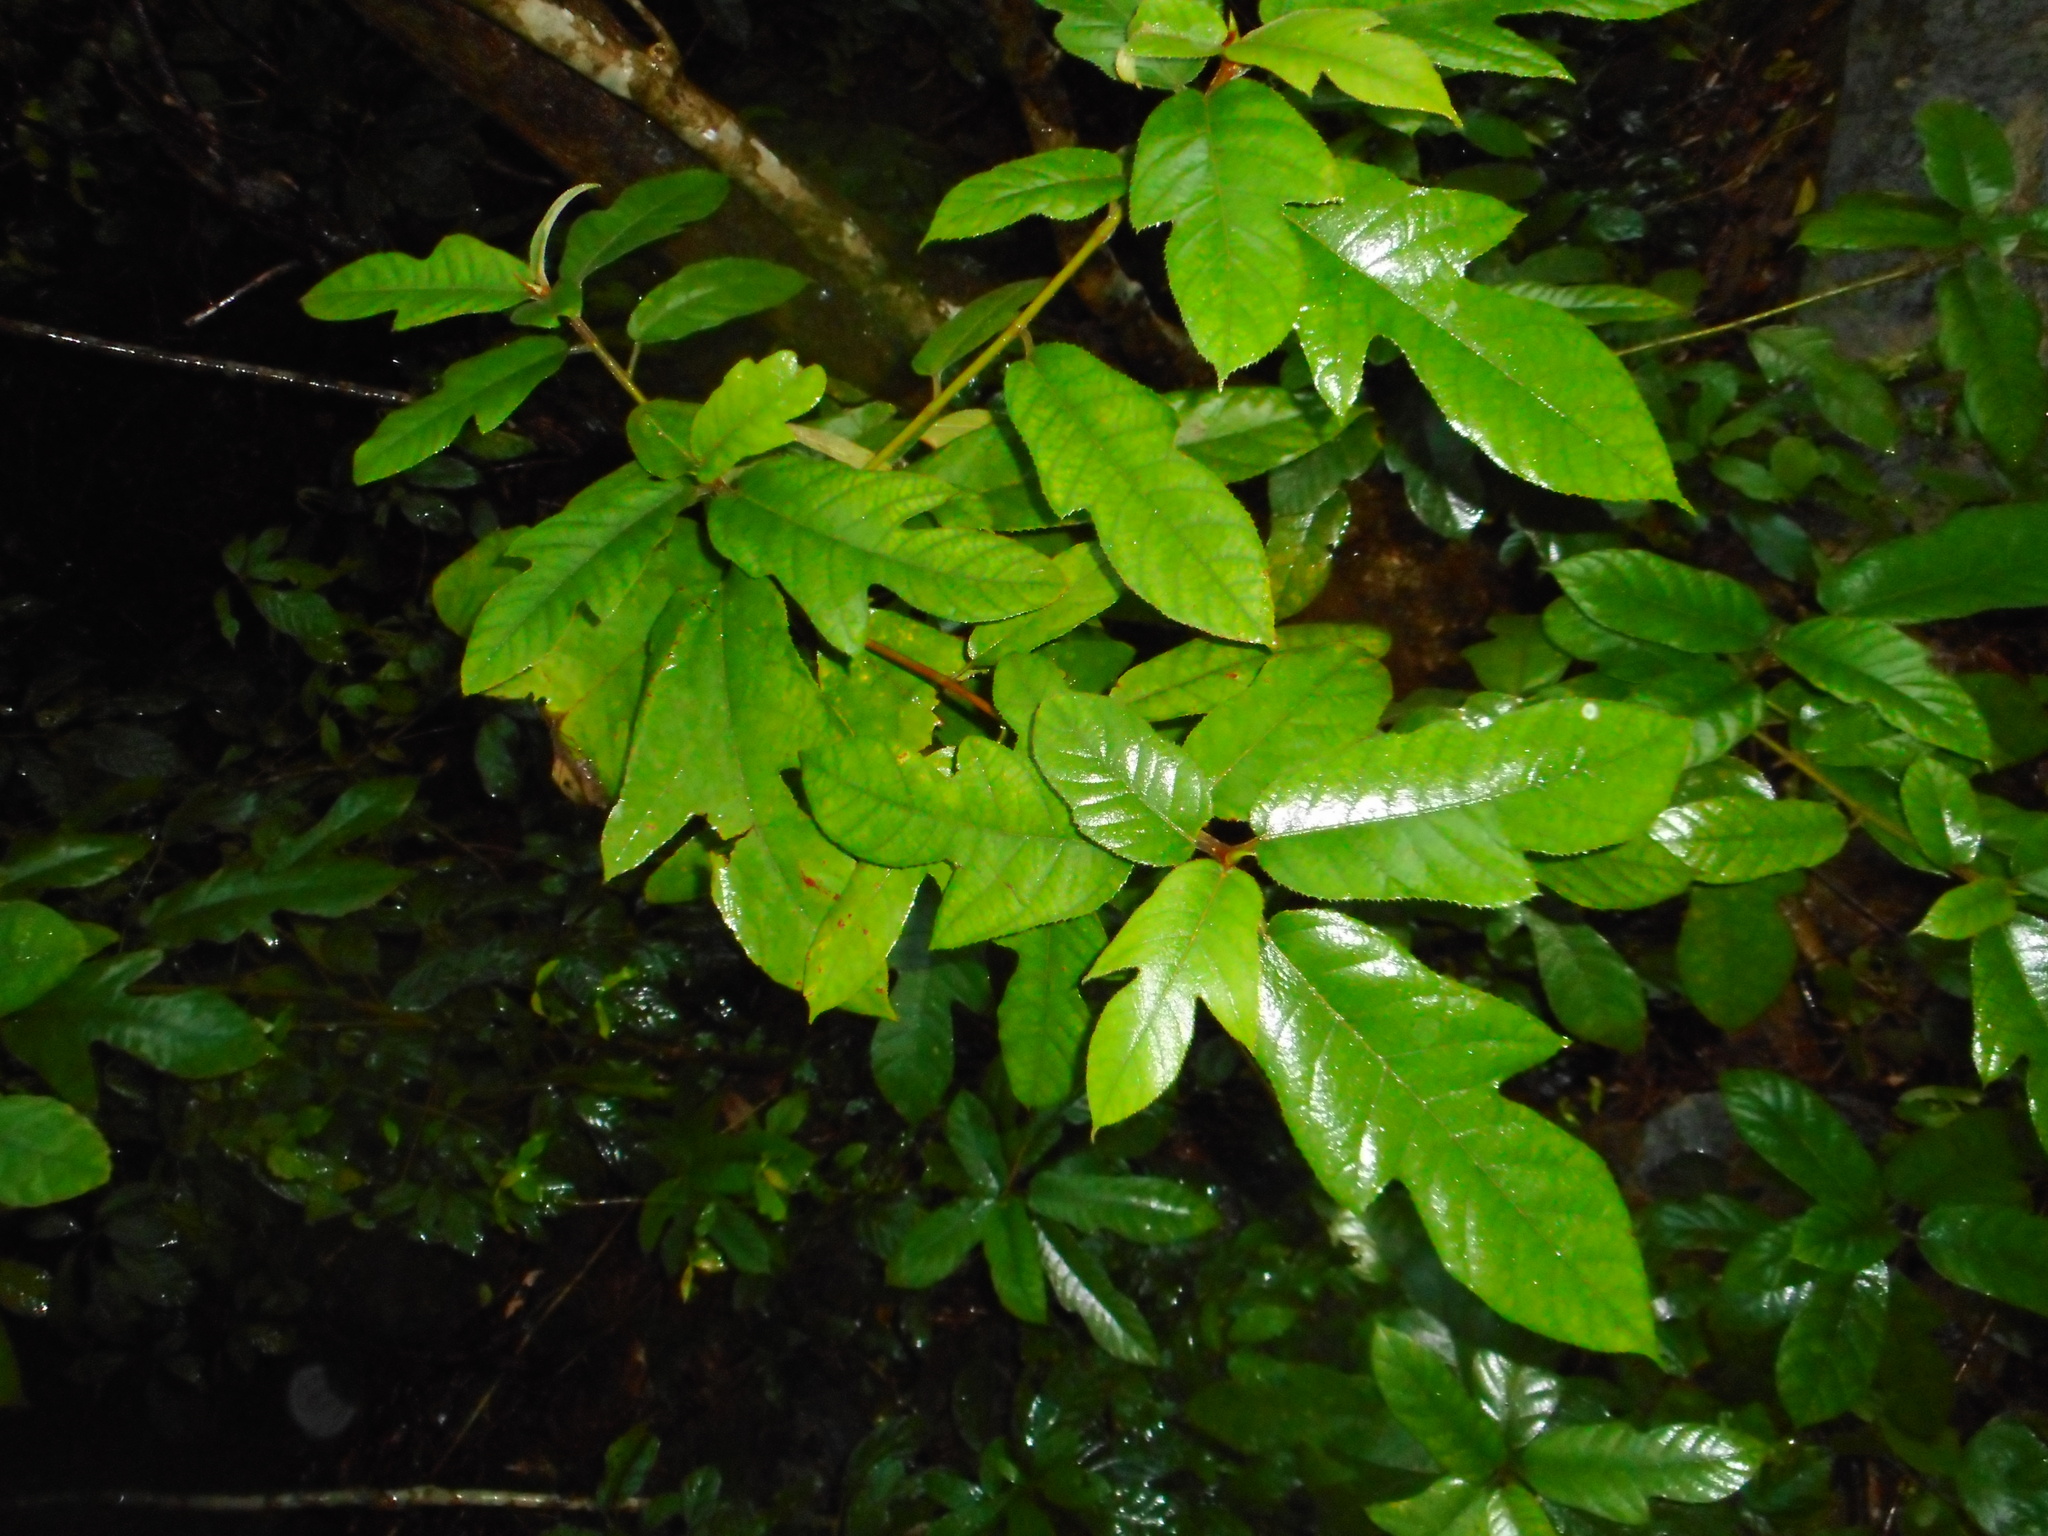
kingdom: Plantae
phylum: Tracheophyta
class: Magnoliopsida
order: Rosales
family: Moraceae
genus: Ficus
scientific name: Ficus simplicissima
